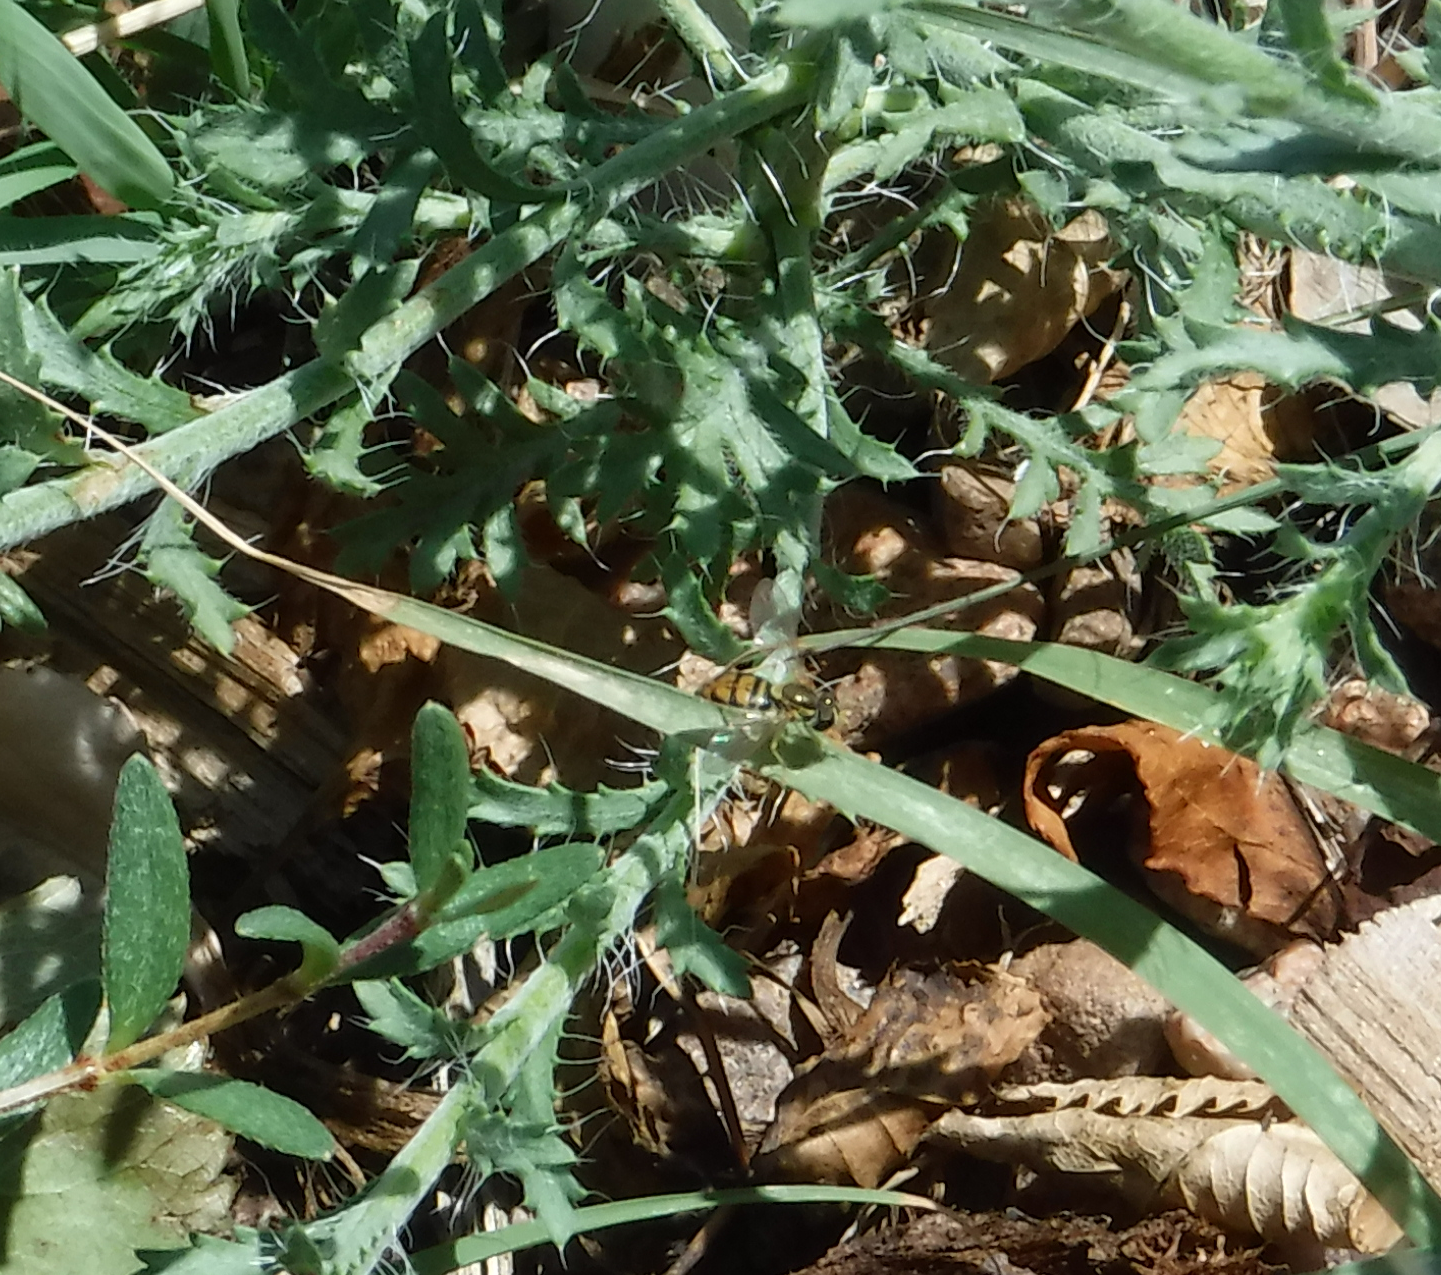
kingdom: Animalia
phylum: Arthropoda
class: Insecta
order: Diptera
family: Syrphidae
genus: Toxomerus
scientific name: Toxomerus marginatus
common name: Syrphid fly
